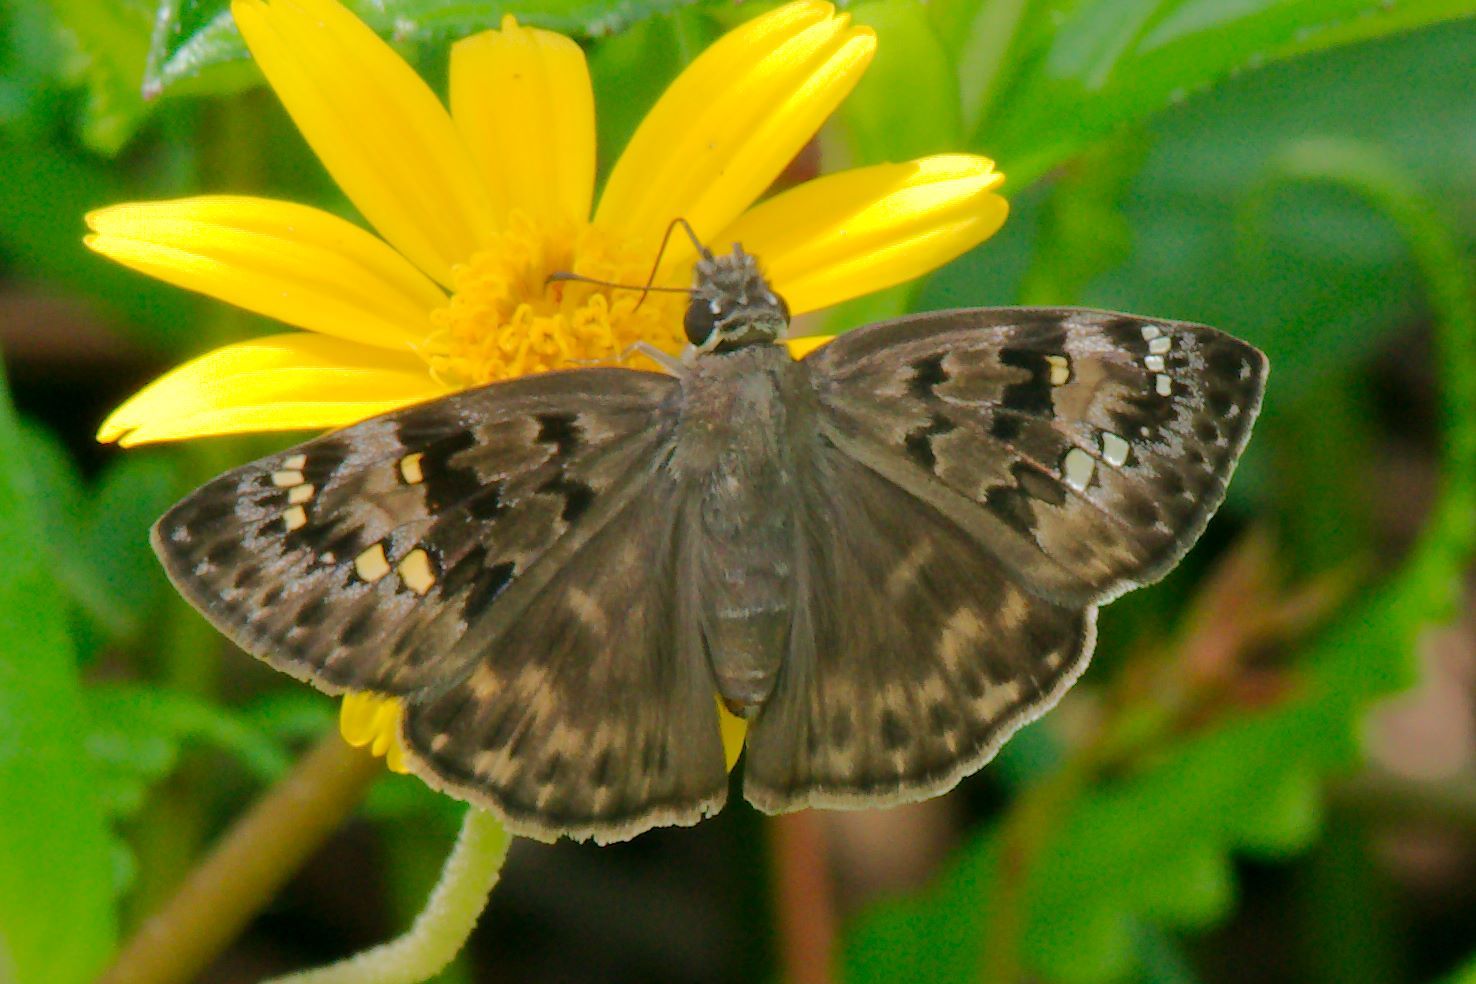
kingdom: Animalia
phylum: Arthropoda
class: Insecta
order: Lepidoptera
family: Hesperiidae
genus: Erynnis
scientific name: Erynnis horatius
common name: Horace's duskywing
